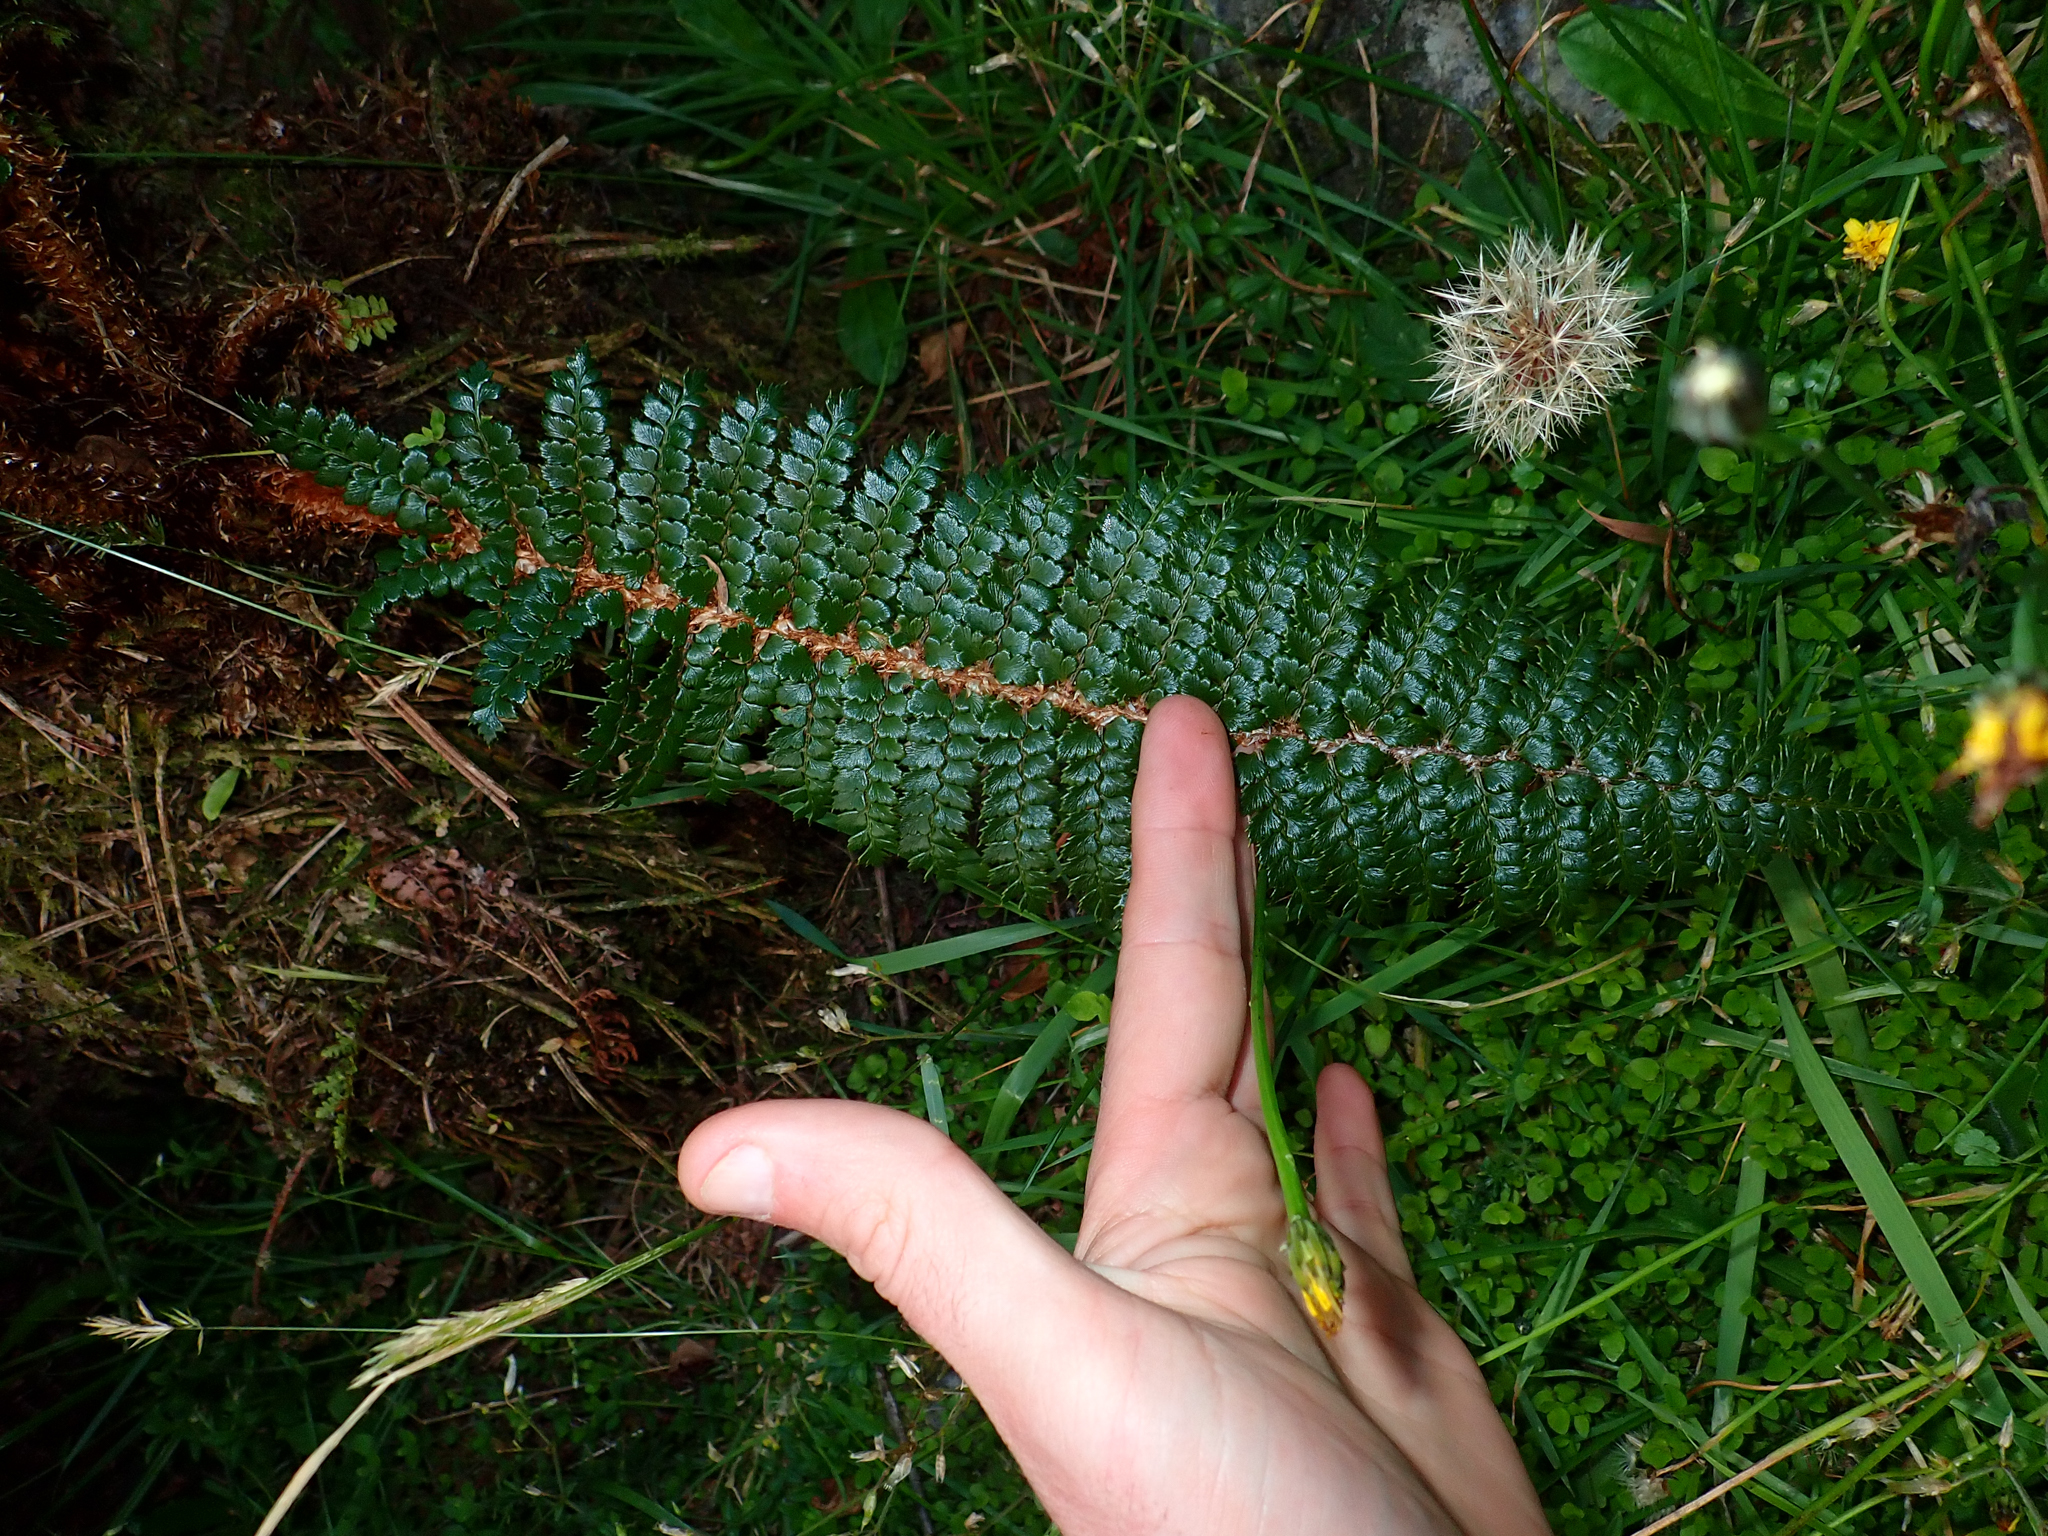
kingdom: Plantae
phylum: Tracheophyta
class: Polypodiopsida
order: Polypodiales
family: Dryopteridaceae
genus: Polystichum
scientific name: Polystichum vestitum
